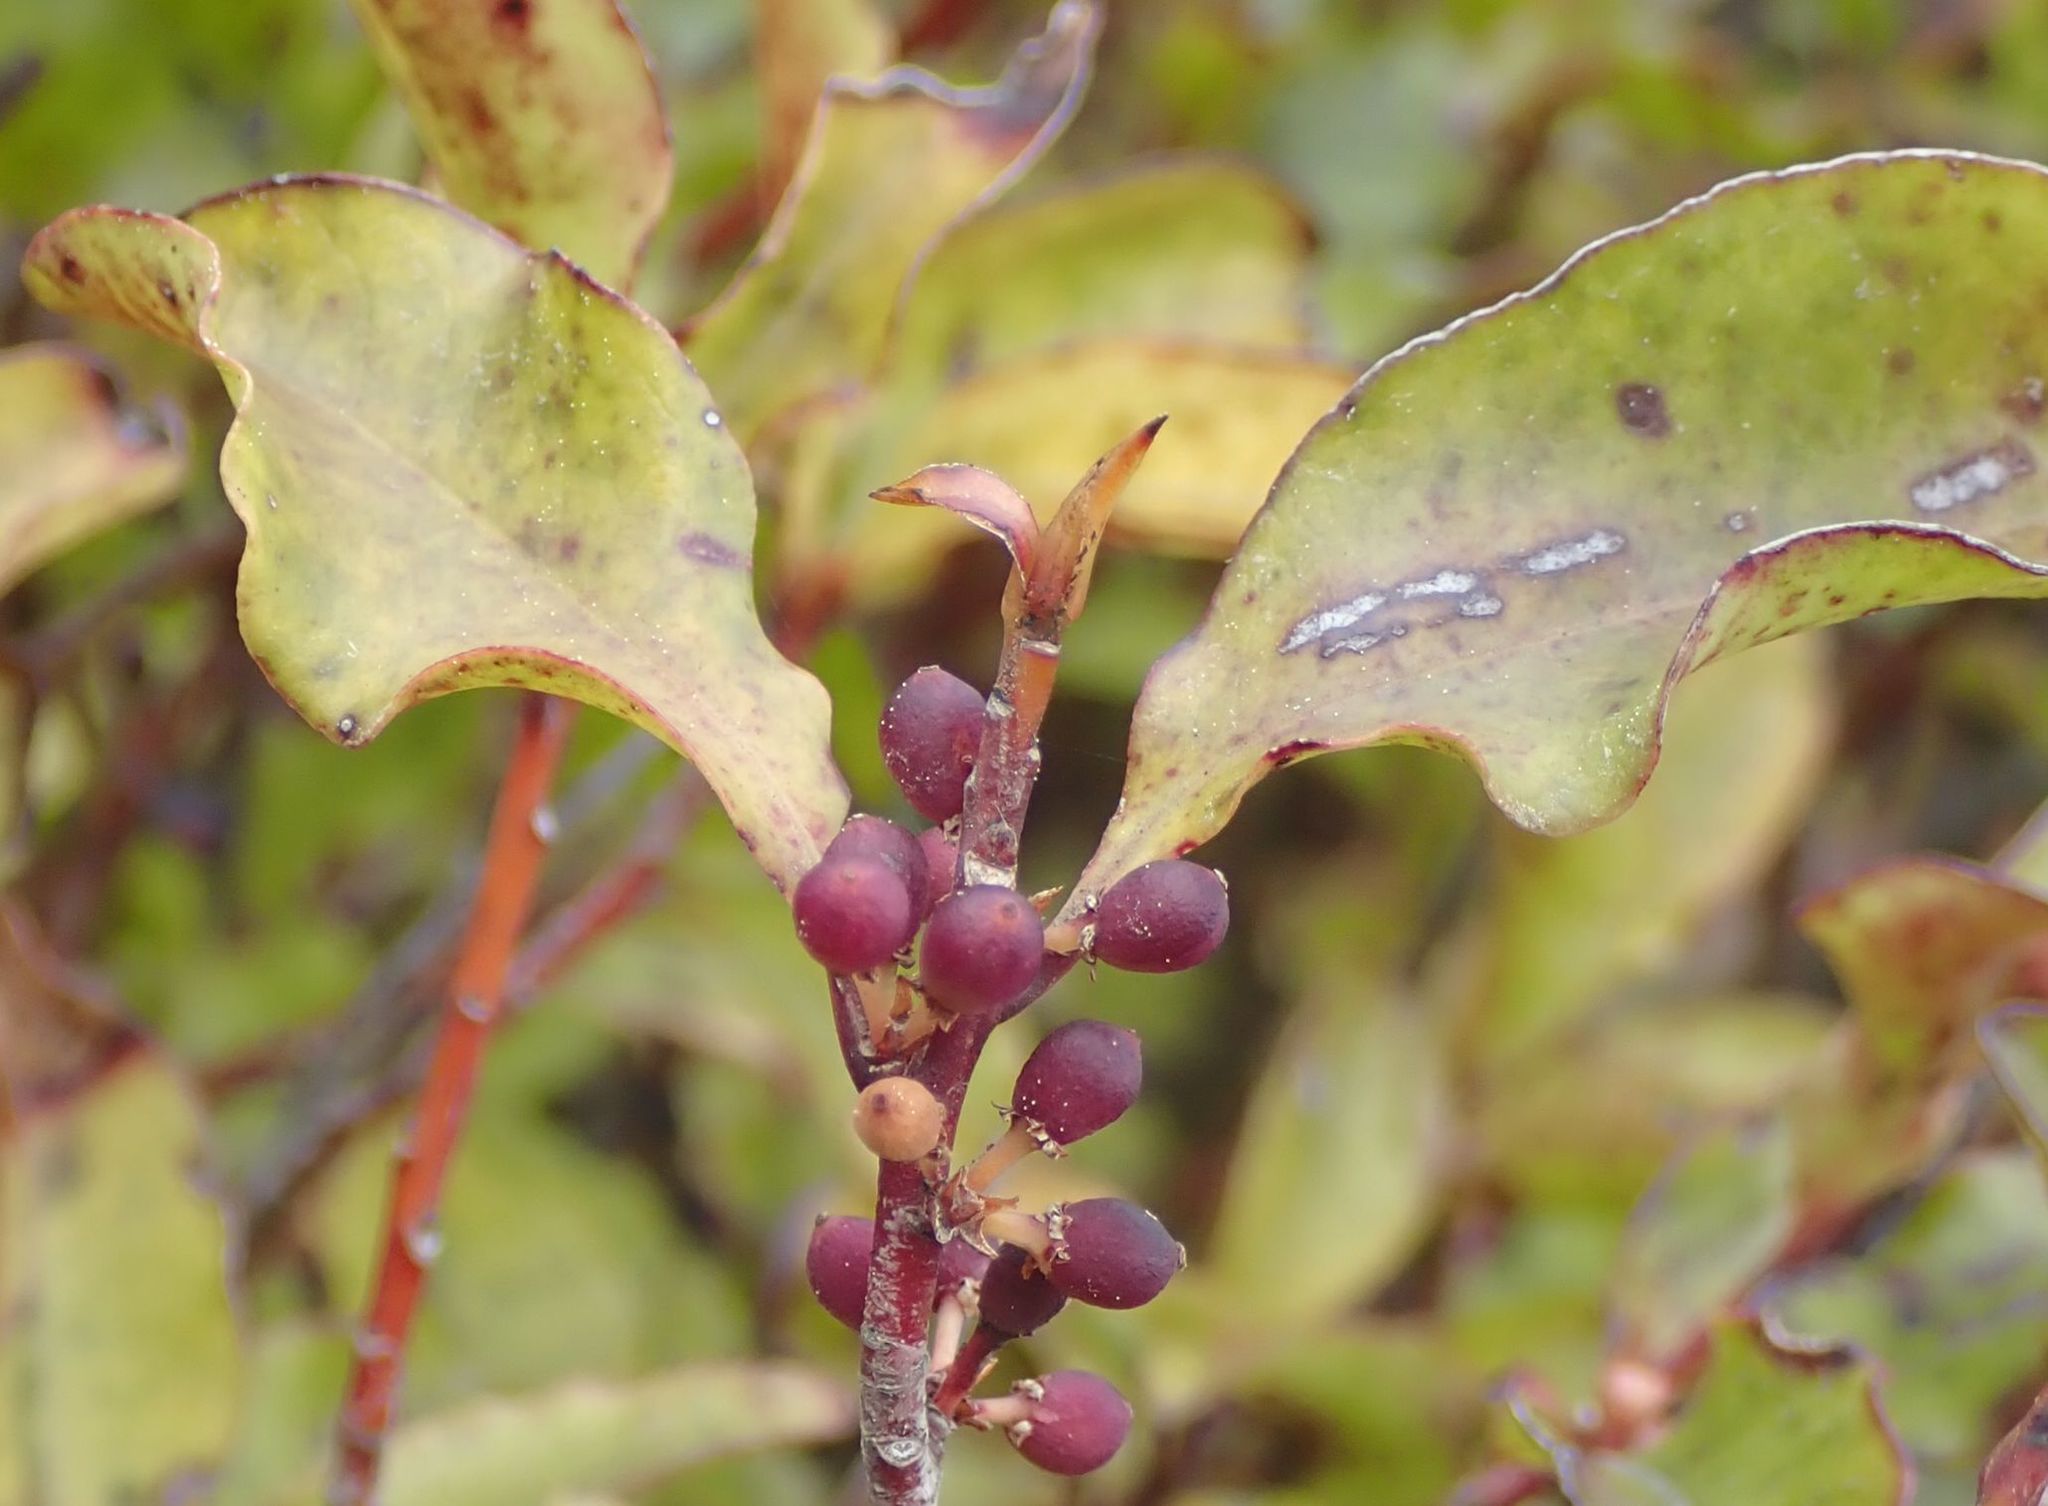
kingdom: Plantae
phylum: Tracheophyta
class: Magnoliopsida
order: Ericales
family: Primulaceae
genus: Myrsine
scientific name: Myrsine australis
